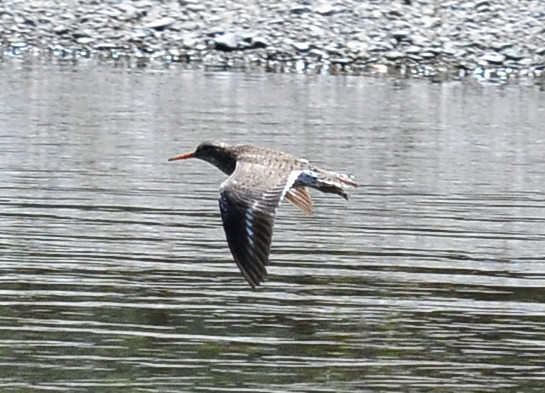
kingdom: Animalia
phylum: Chordata
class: Aves
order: Charadriiformes
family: Scolopacidae
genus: Actitis
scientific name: Actitis macularius
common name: Spotted sandpiper
